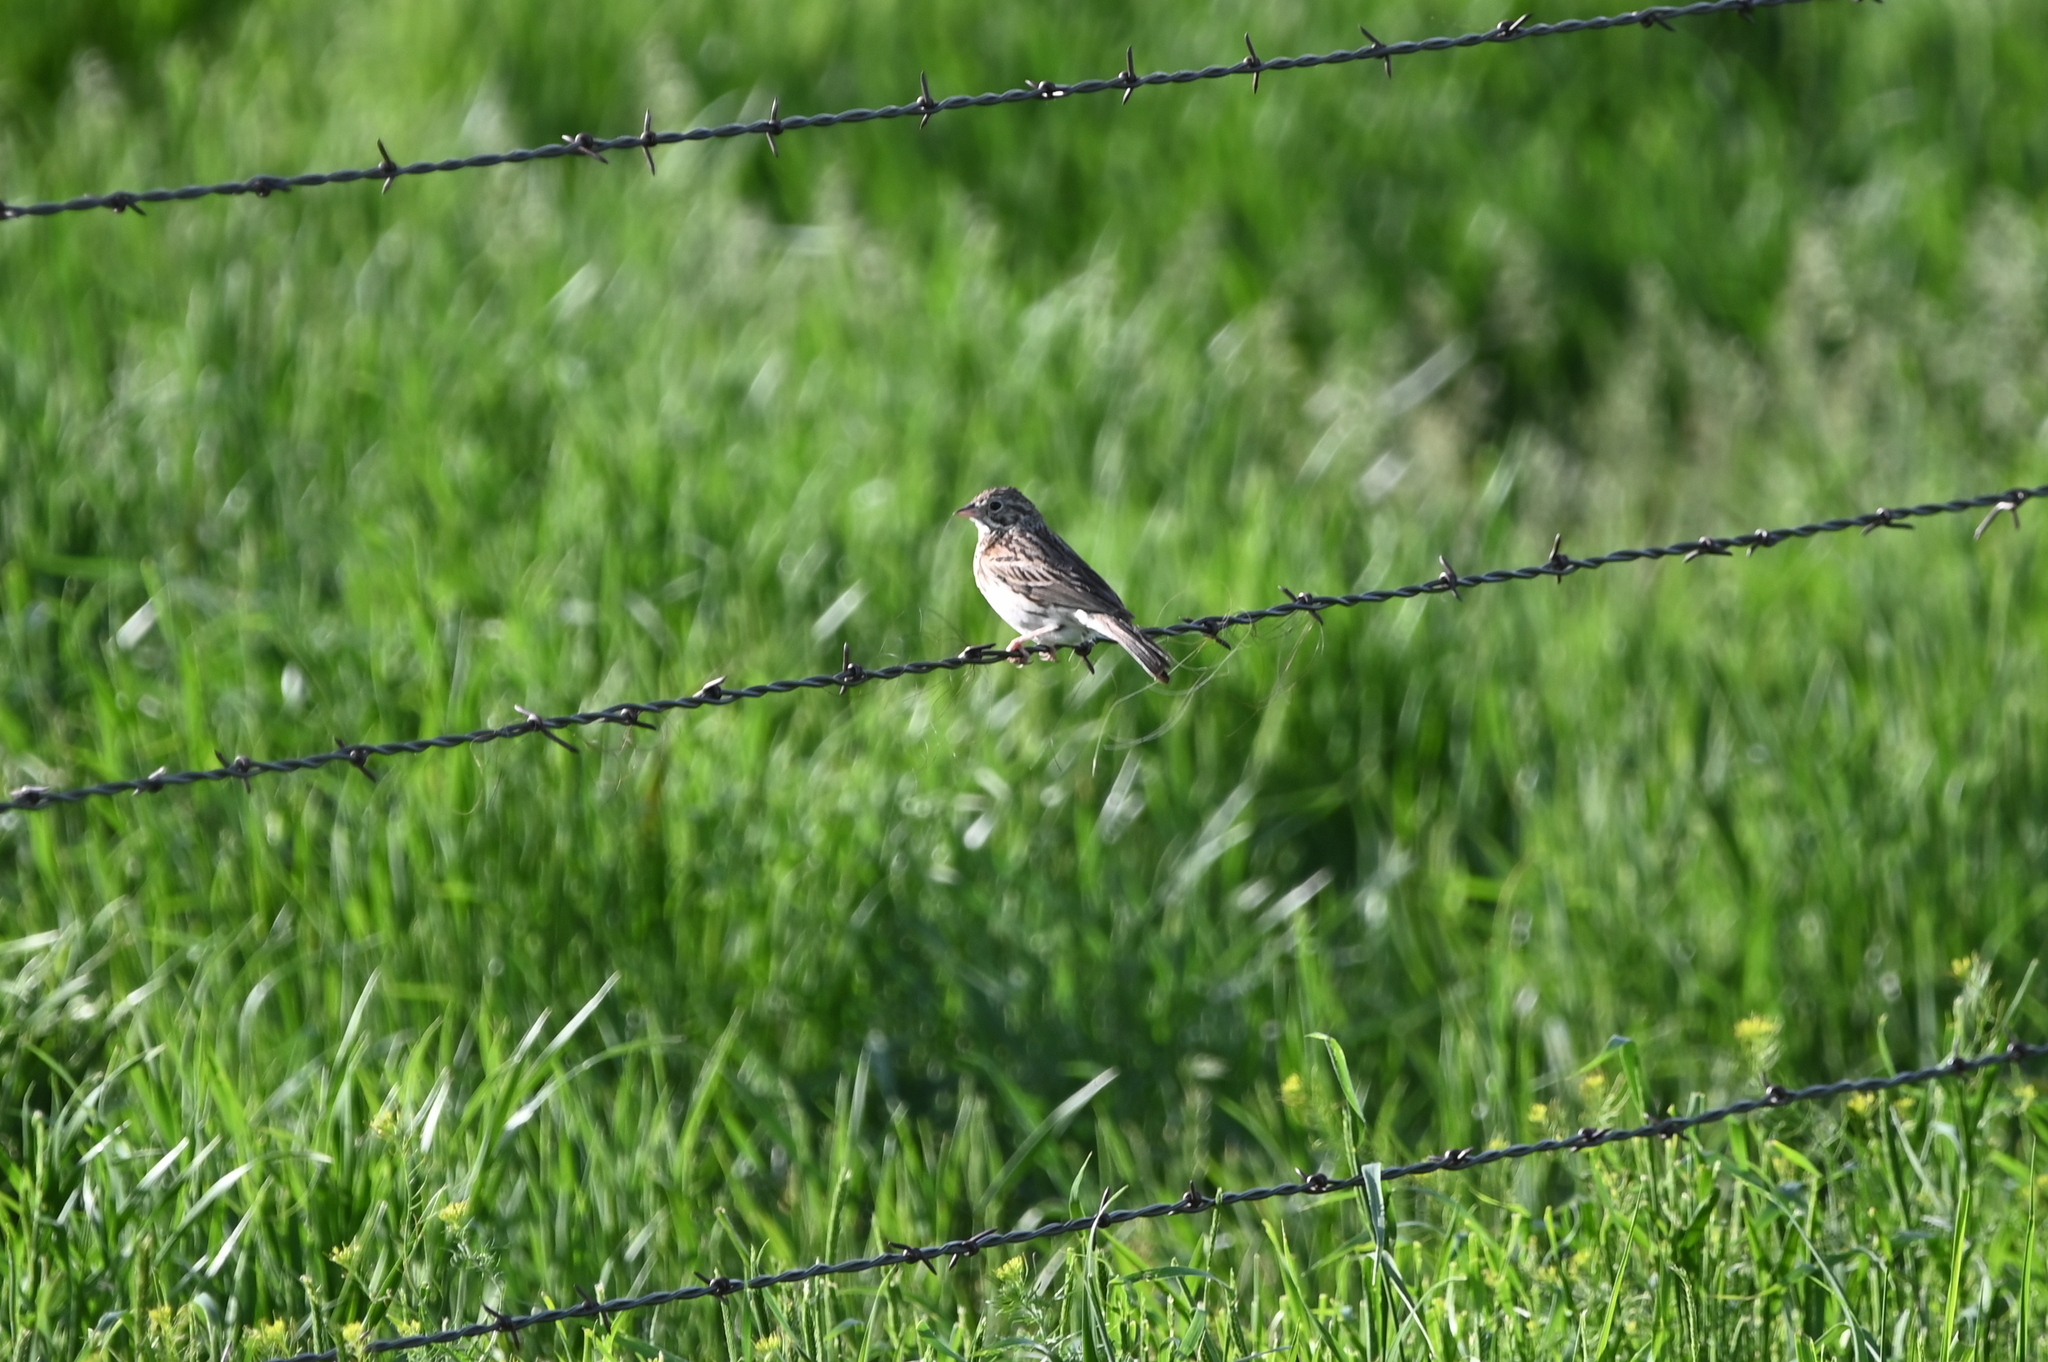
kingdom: Animalia
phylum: Chordata
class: Aves
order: Passeriformes
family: Passerellidae
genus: Pooecetes
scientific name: Pooecetes gramineus
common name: Vesper sparrow
